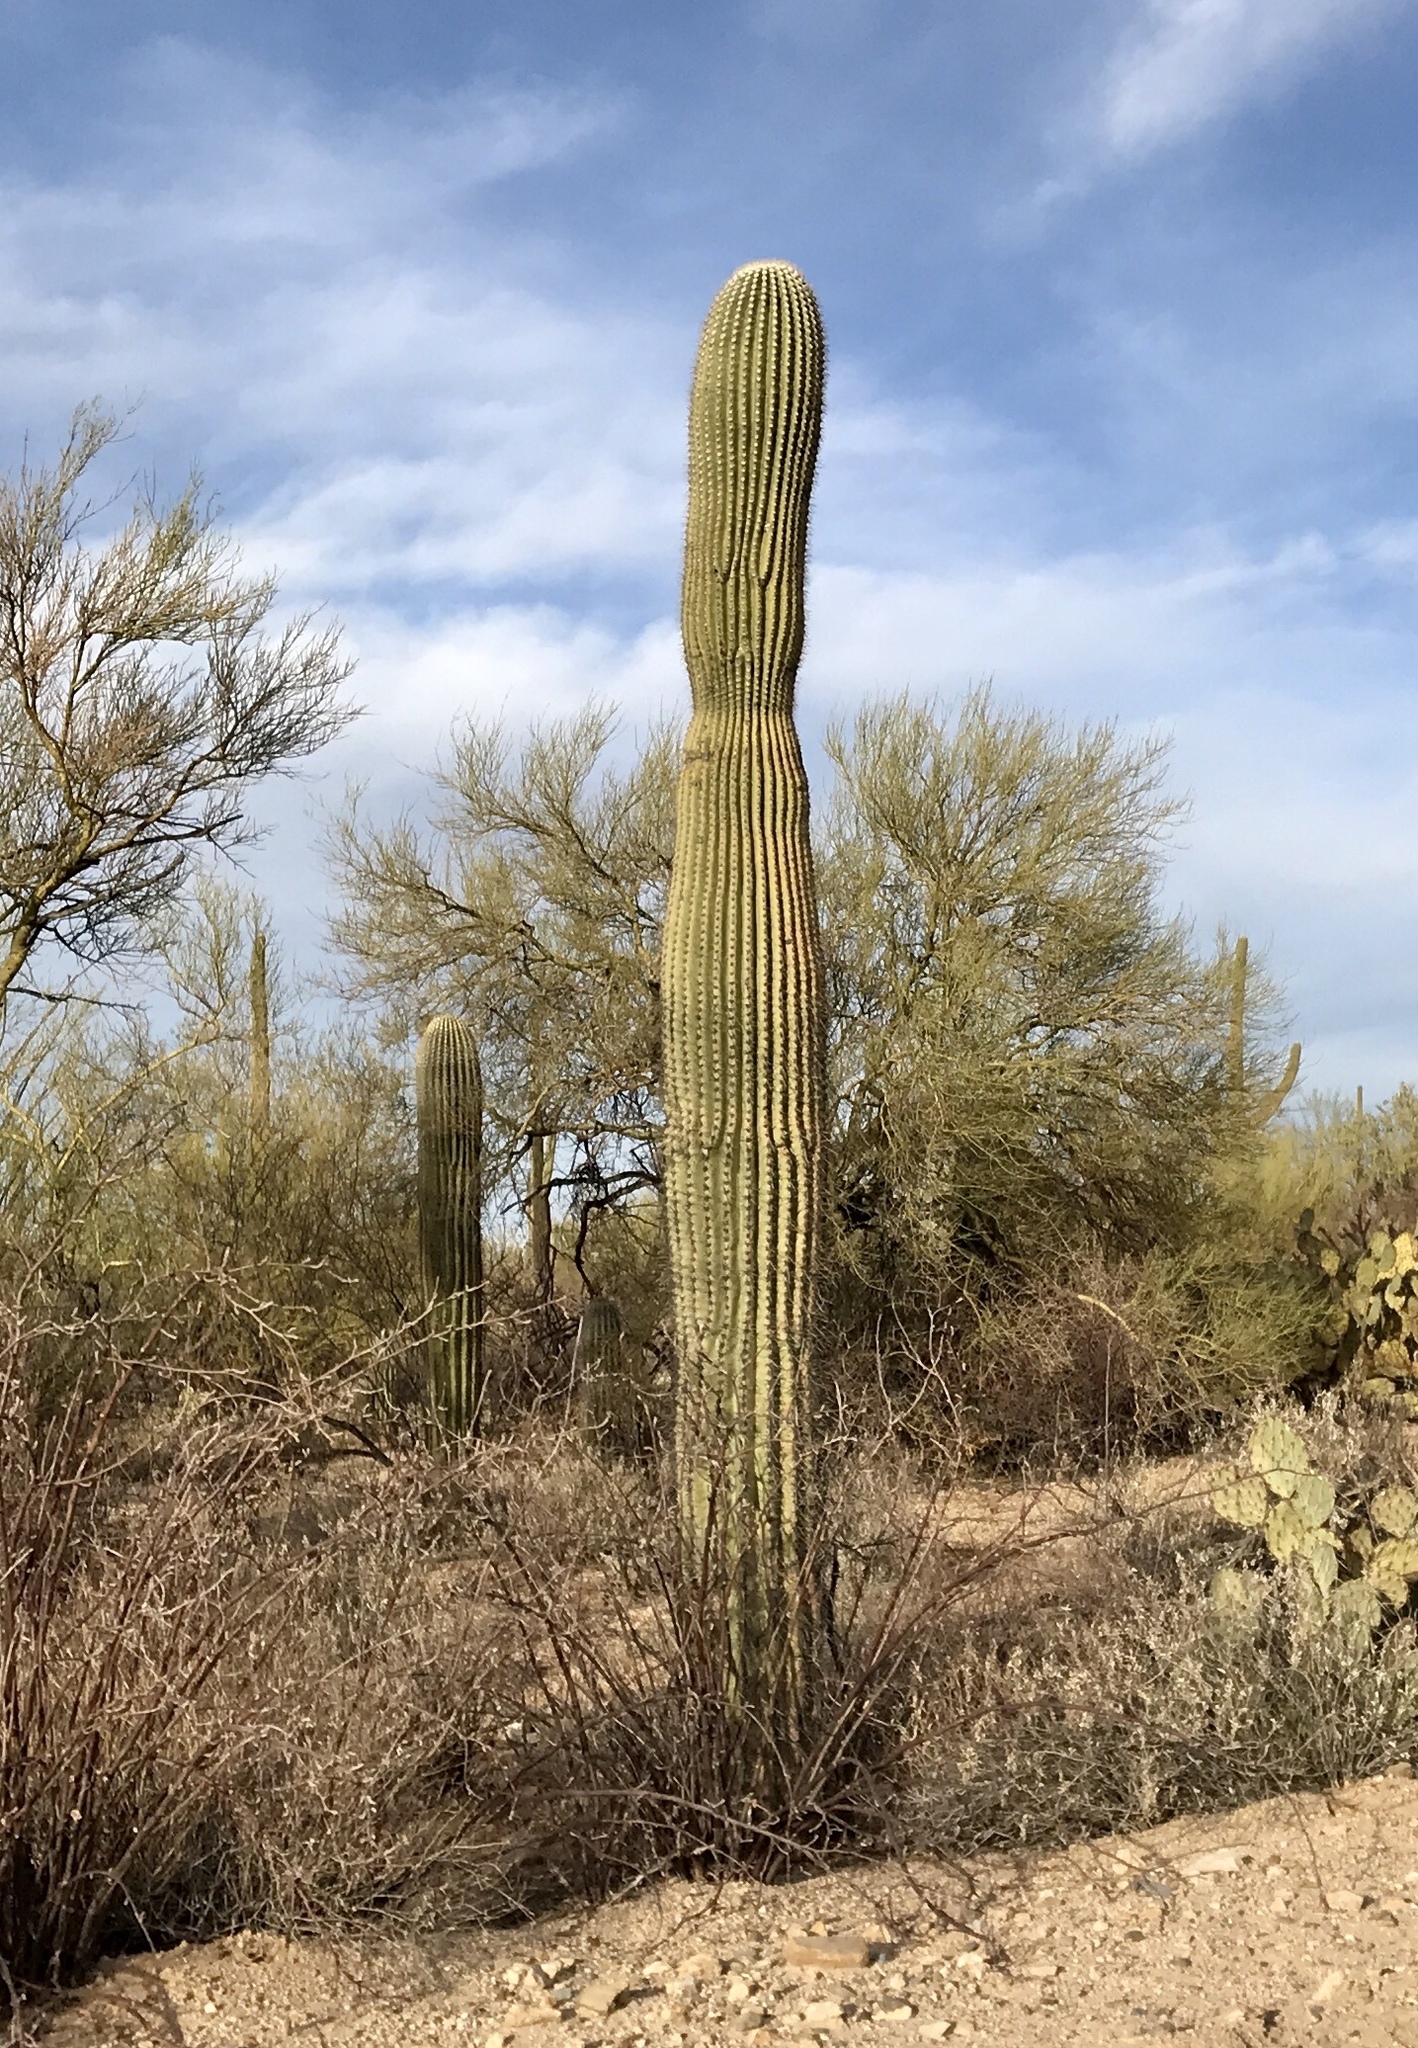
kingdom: Plantae
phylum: Tracheophyta
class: Magnoliopsida
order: Caryophyllales
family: Cactaceae
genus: Carnegiea
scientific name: Carnegiea gigantea
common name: Saguaro
